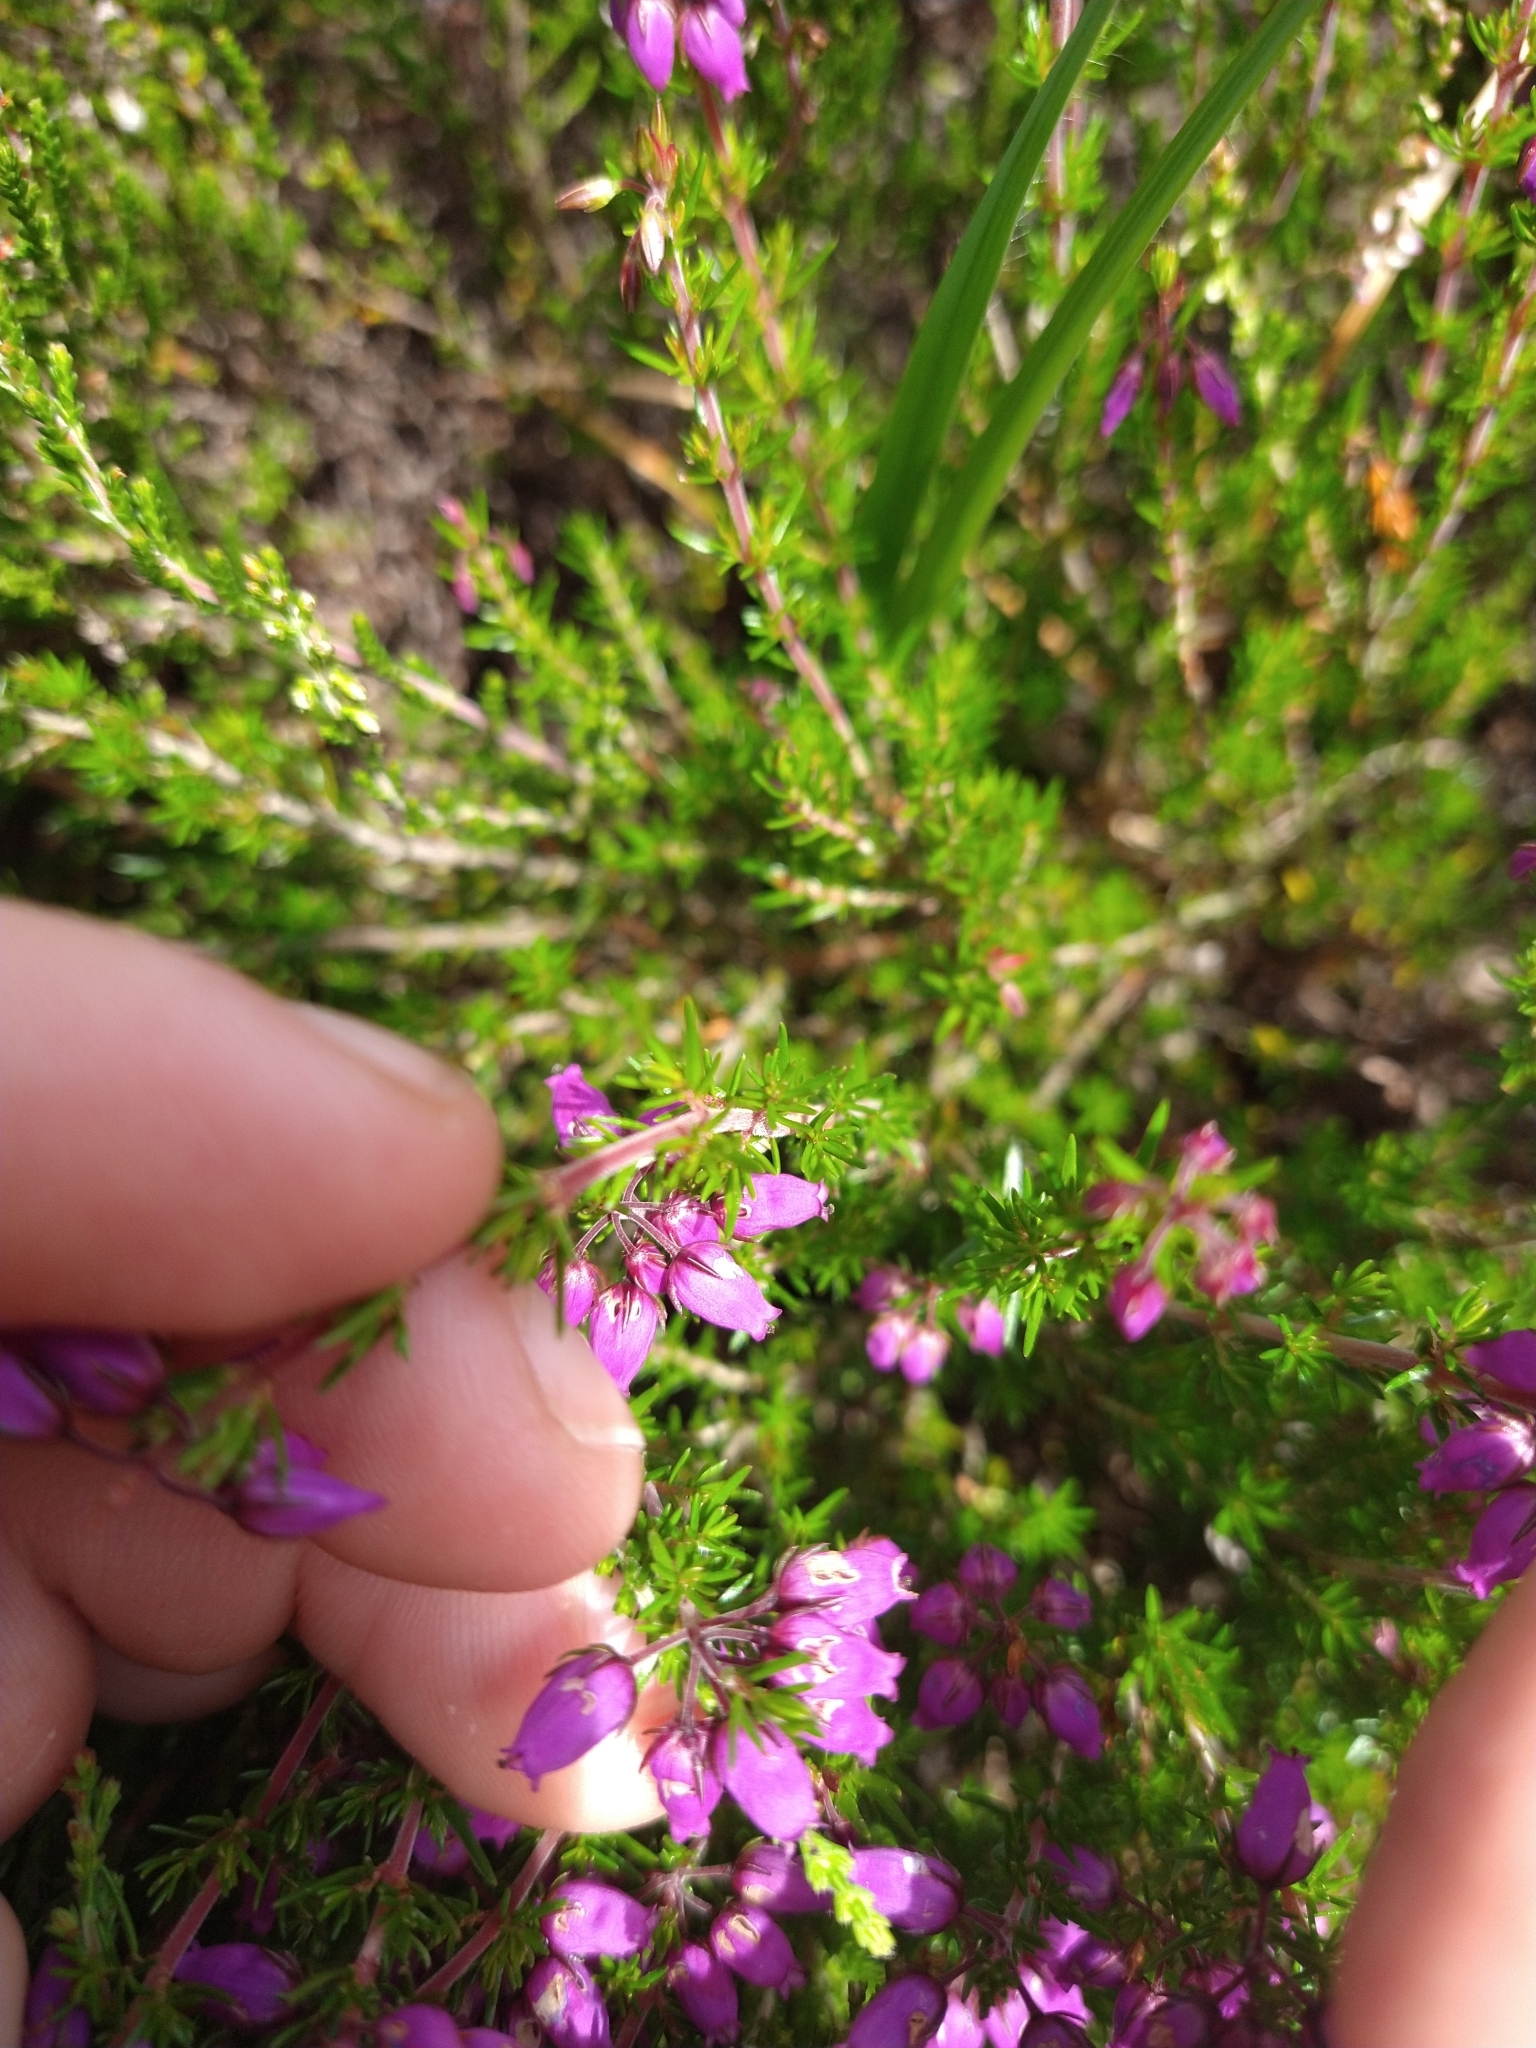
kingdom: Plantae
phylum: Tracheophyta
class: Magnoliopsida
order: Ericales
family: Ericaceae
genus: Erica
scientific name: Erica cinerea
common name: Bell heather
